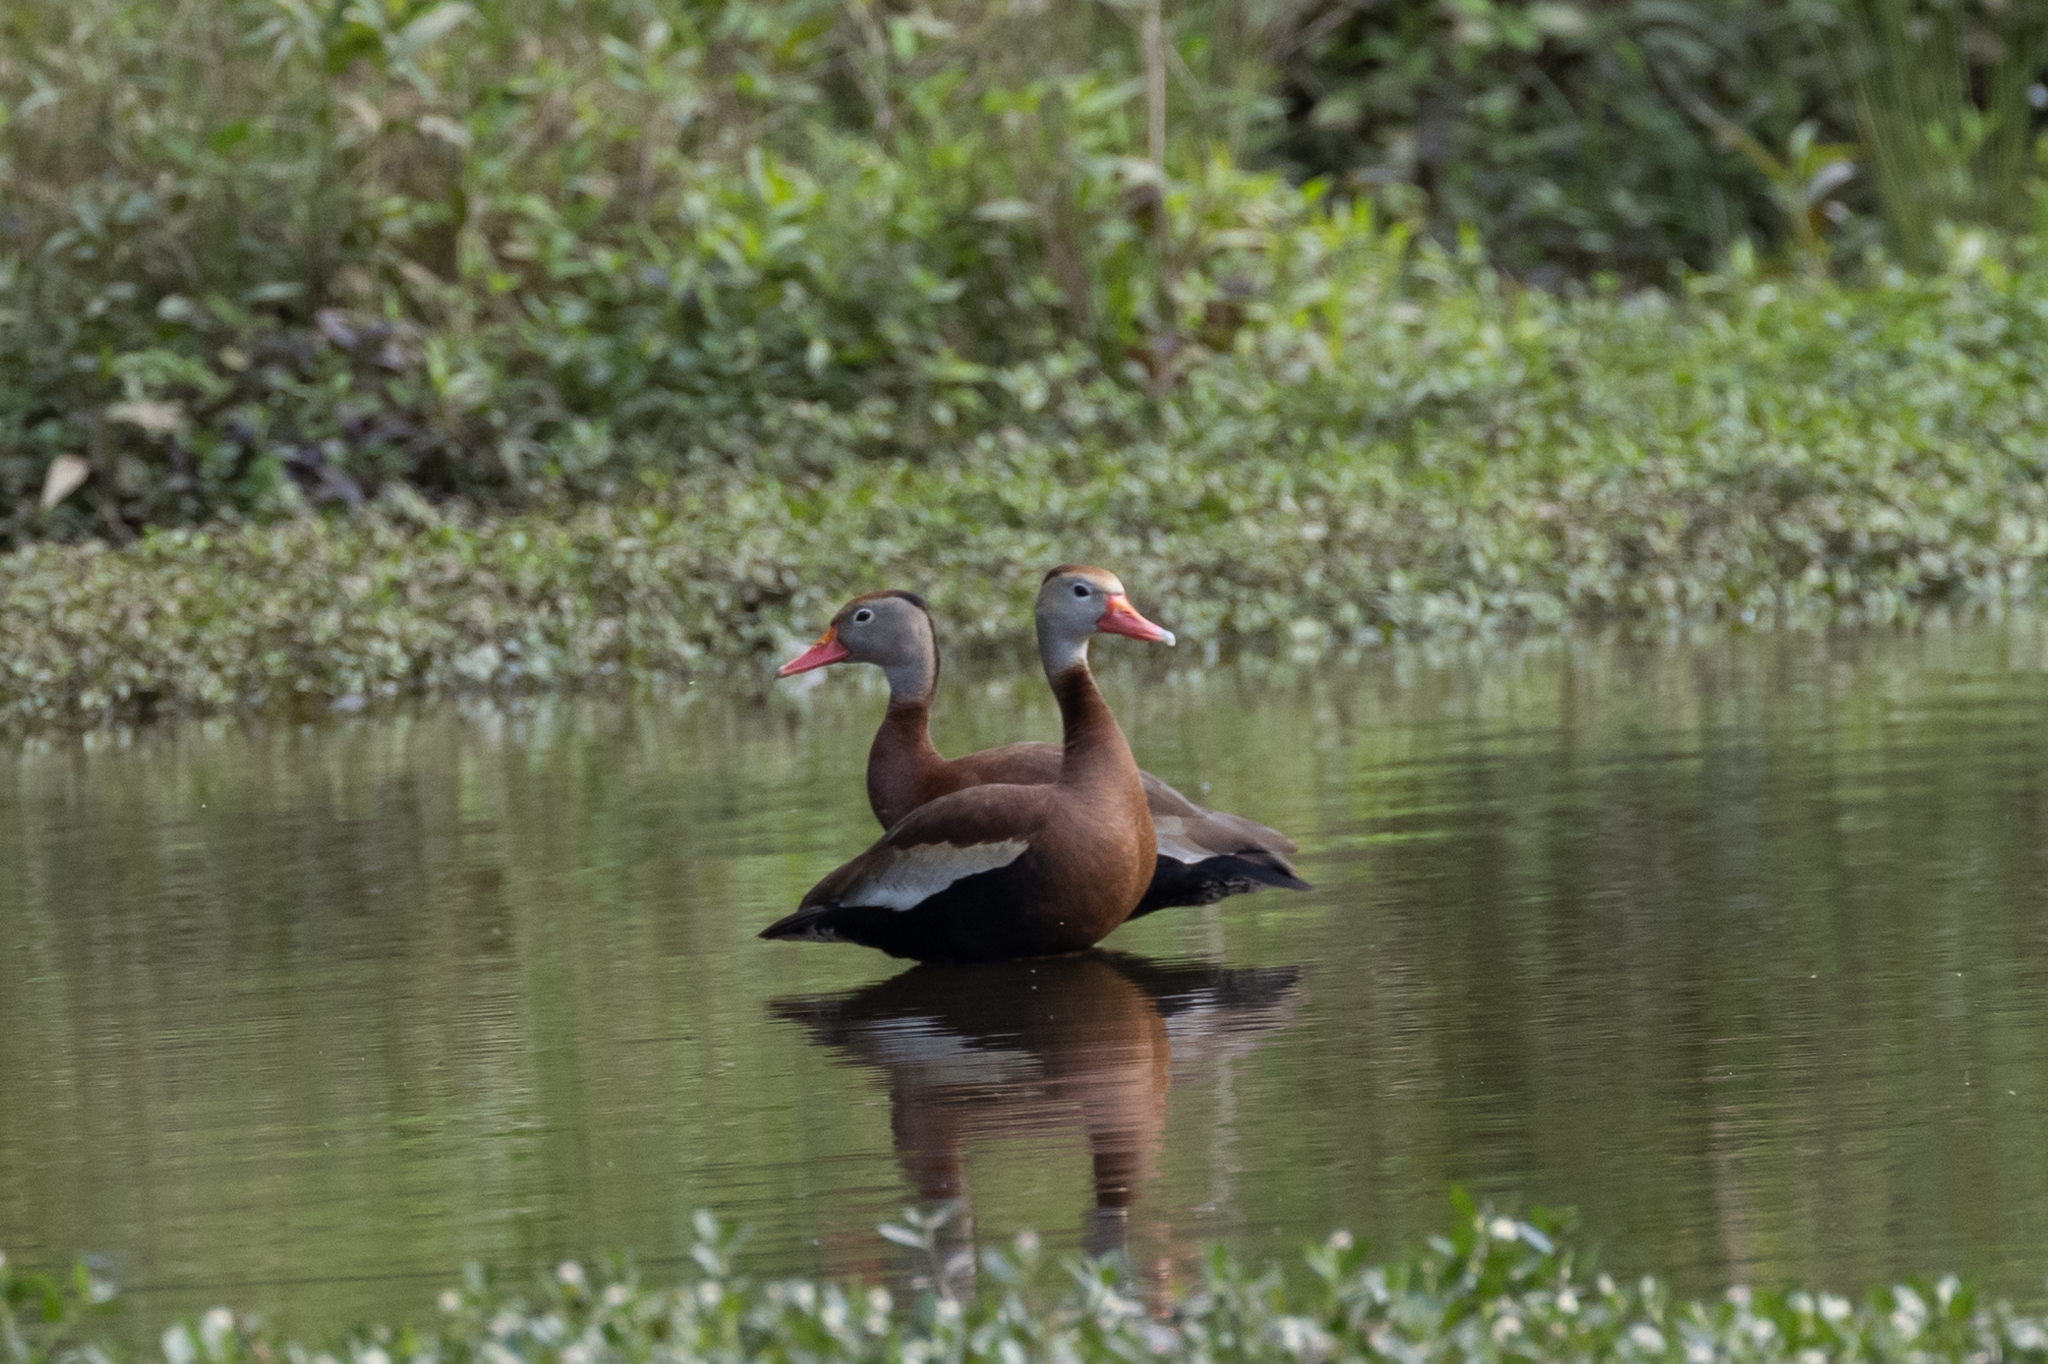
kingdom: Animalia
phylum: Chordata
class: Aves
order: Anseriformes
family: Anatidae
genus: Dendrocygna
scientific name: Dendrocygna autumnalis
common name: Black-bellied whistling duck
